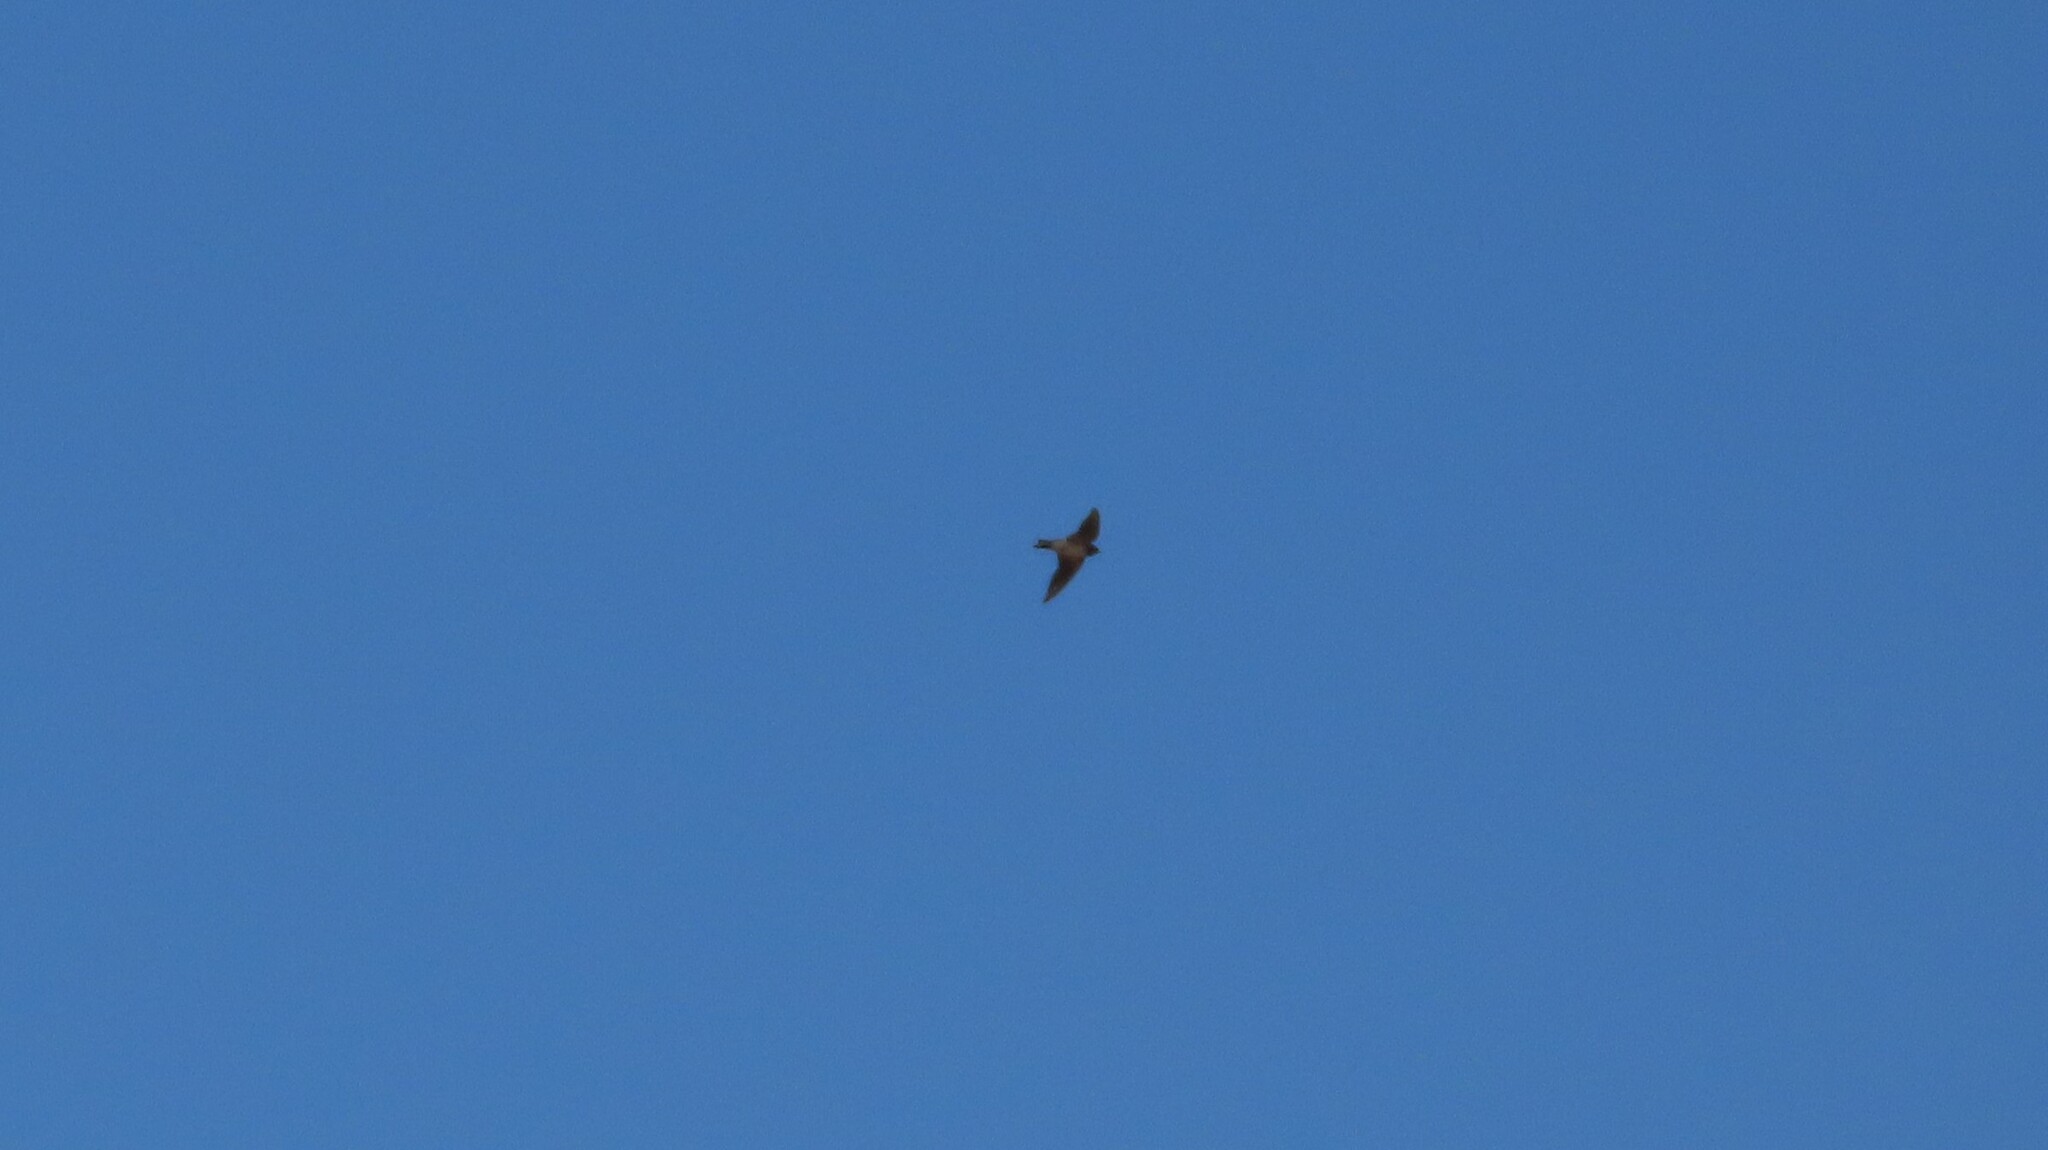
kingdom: Animalia
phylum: Chordata
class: Aves
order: Passeriformes
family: Hirundinidae
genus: Hirundo
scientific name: Hirundo rustica
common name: Barn swallow
